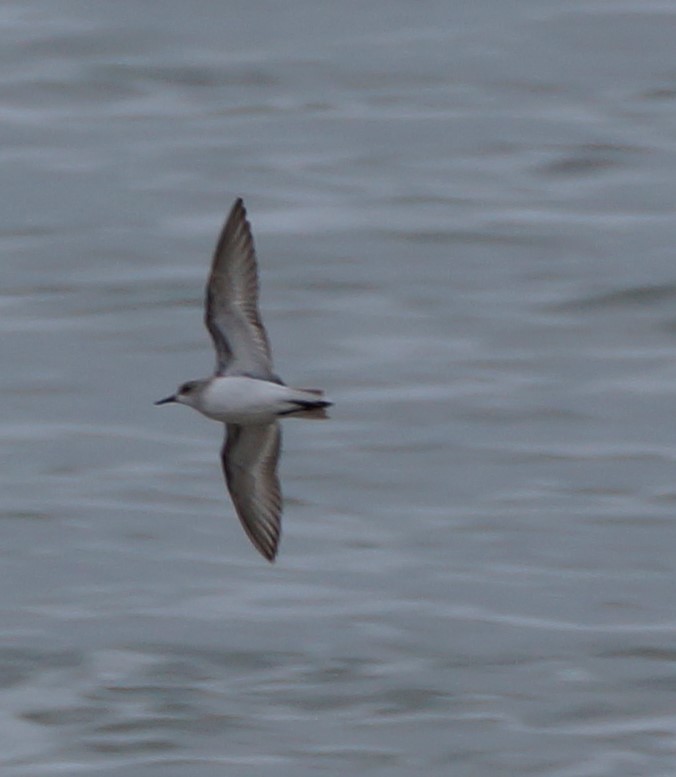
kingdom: Animalia
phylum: Chordata
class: Aves
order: Charadriiformes
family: Scolopacidae
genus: Calidris
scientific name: Calidris ruficollis
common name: Red-necked stint
